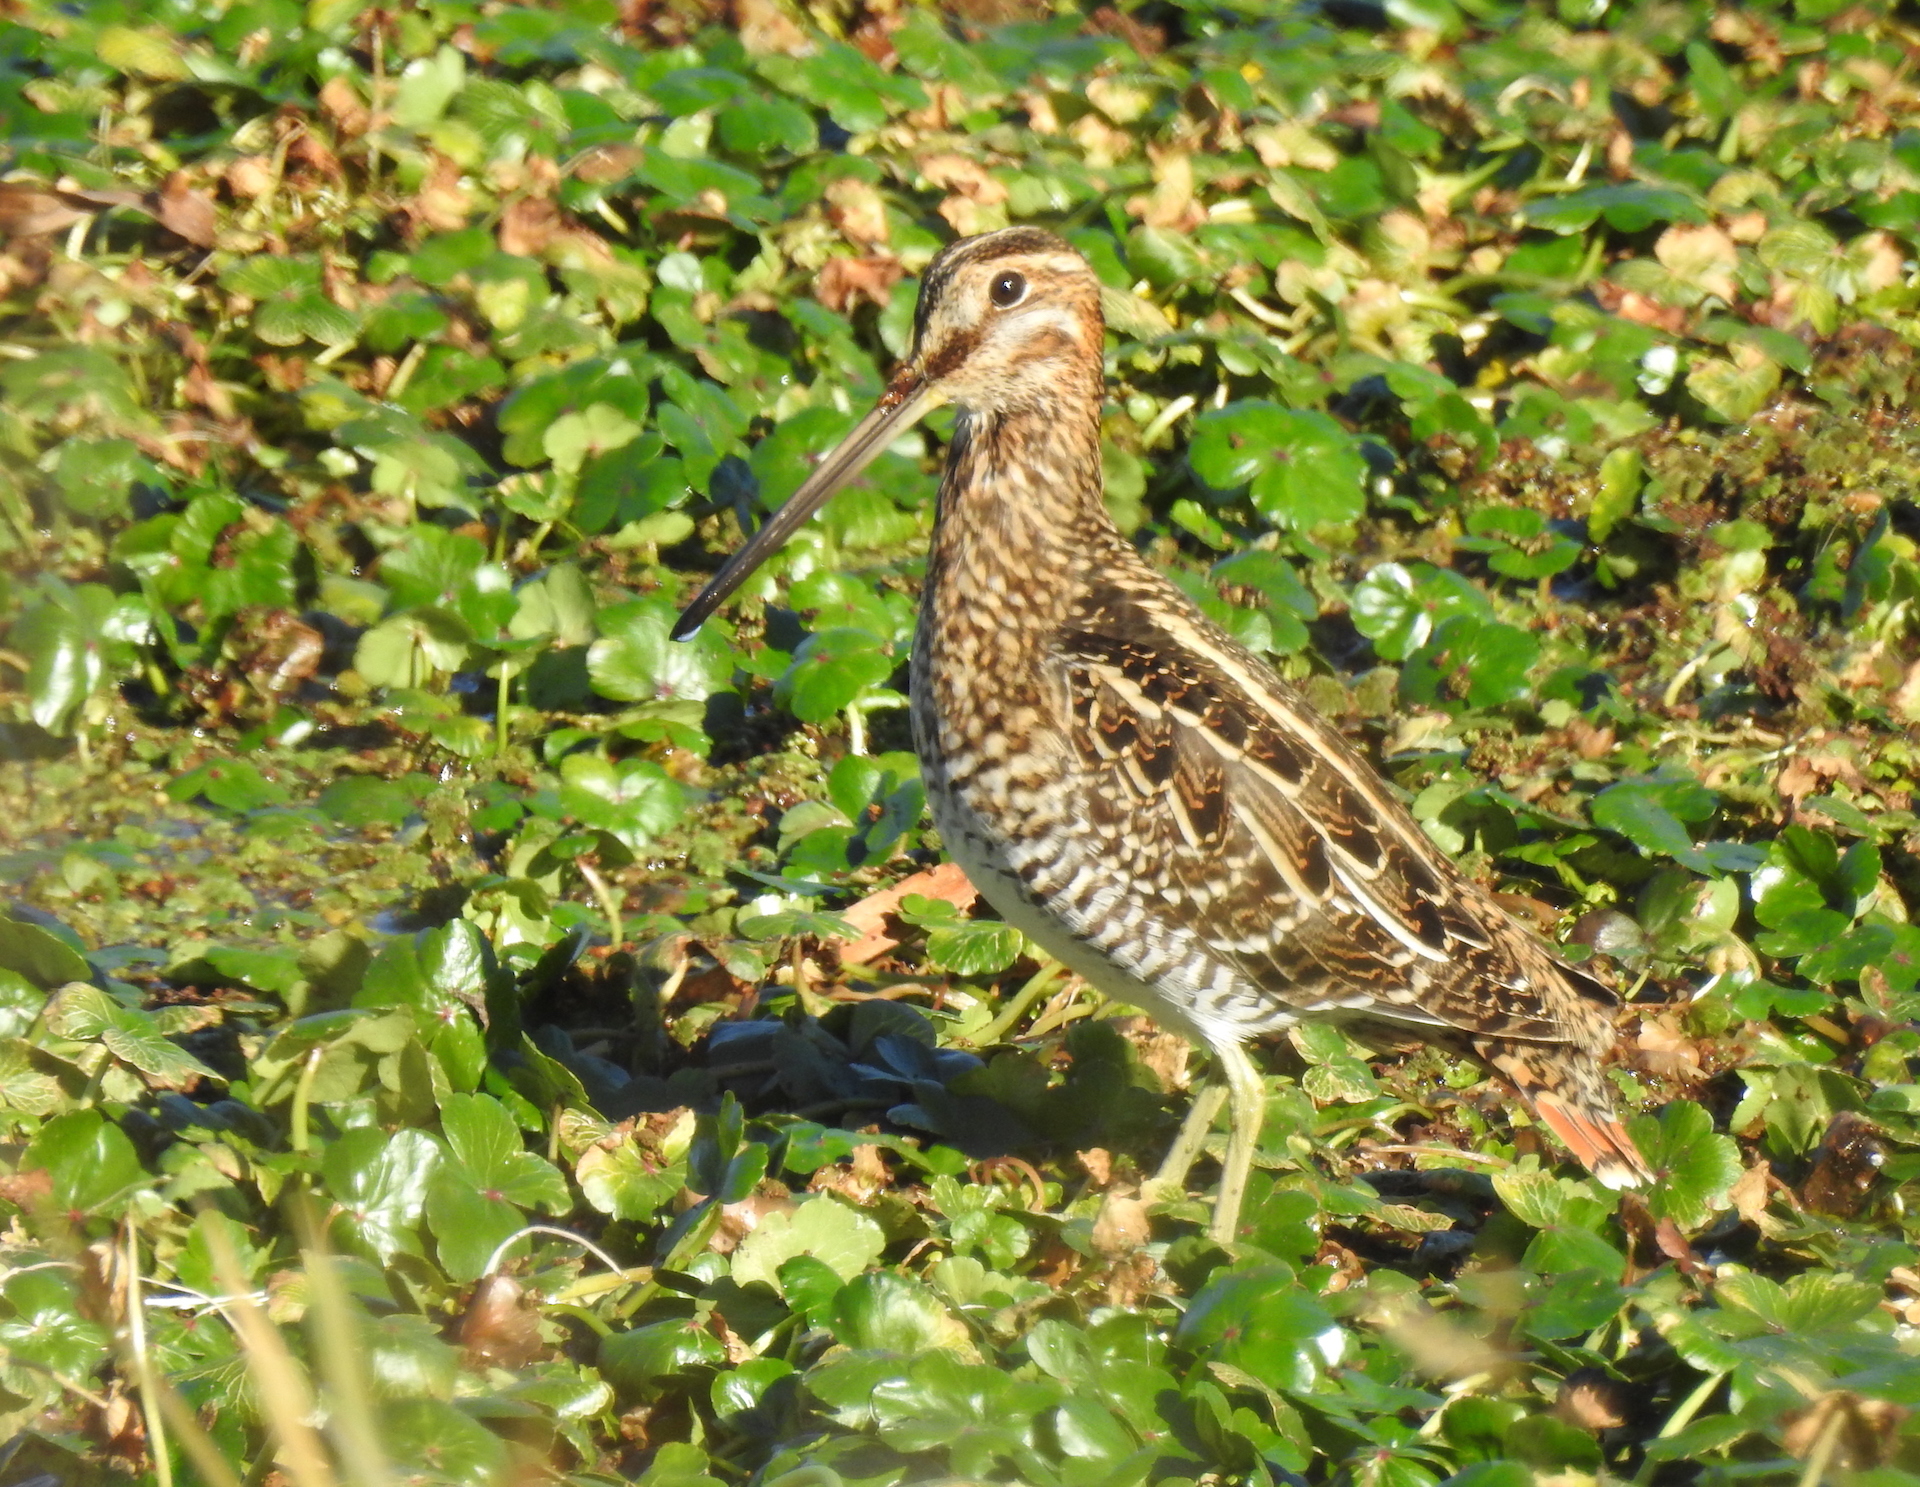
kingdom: Animalia
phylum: Chordata
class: Aves
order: Charadriiformes
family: Scolopacidae
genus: Gallinago
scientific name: Gallinago delicata
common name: Wilson's snipe
